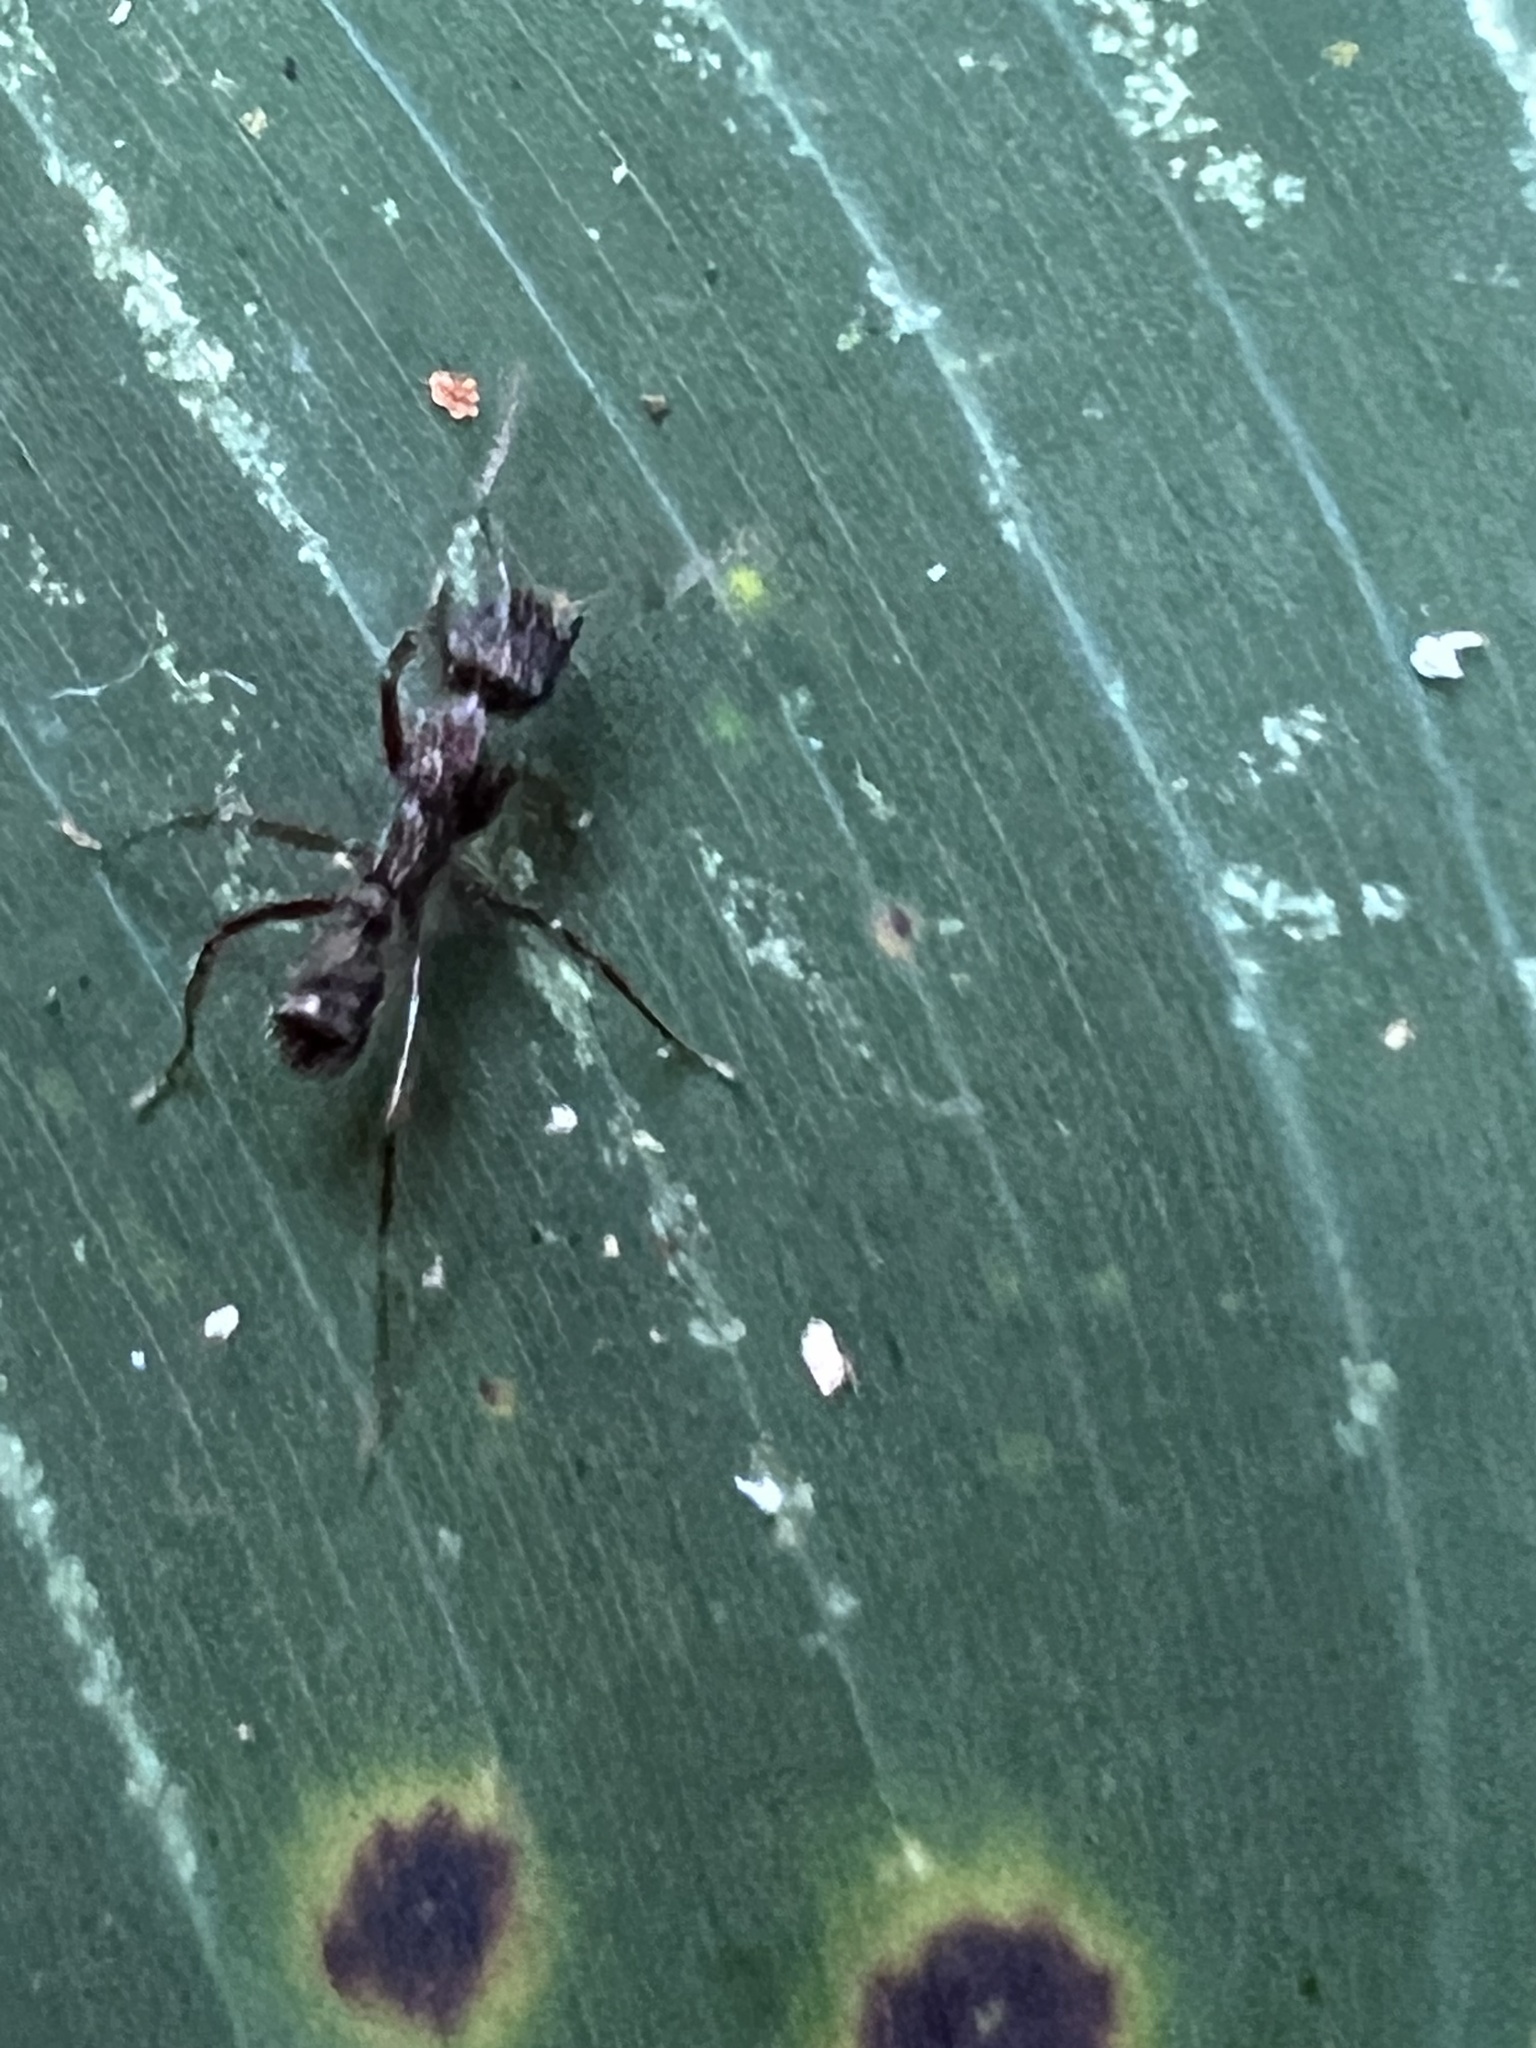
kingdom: Animalia
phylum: Arthropoda
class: Insecta
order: Hymenoptera
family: Formicidae
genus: Ectatomma
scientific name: Ectatomma edentatum
